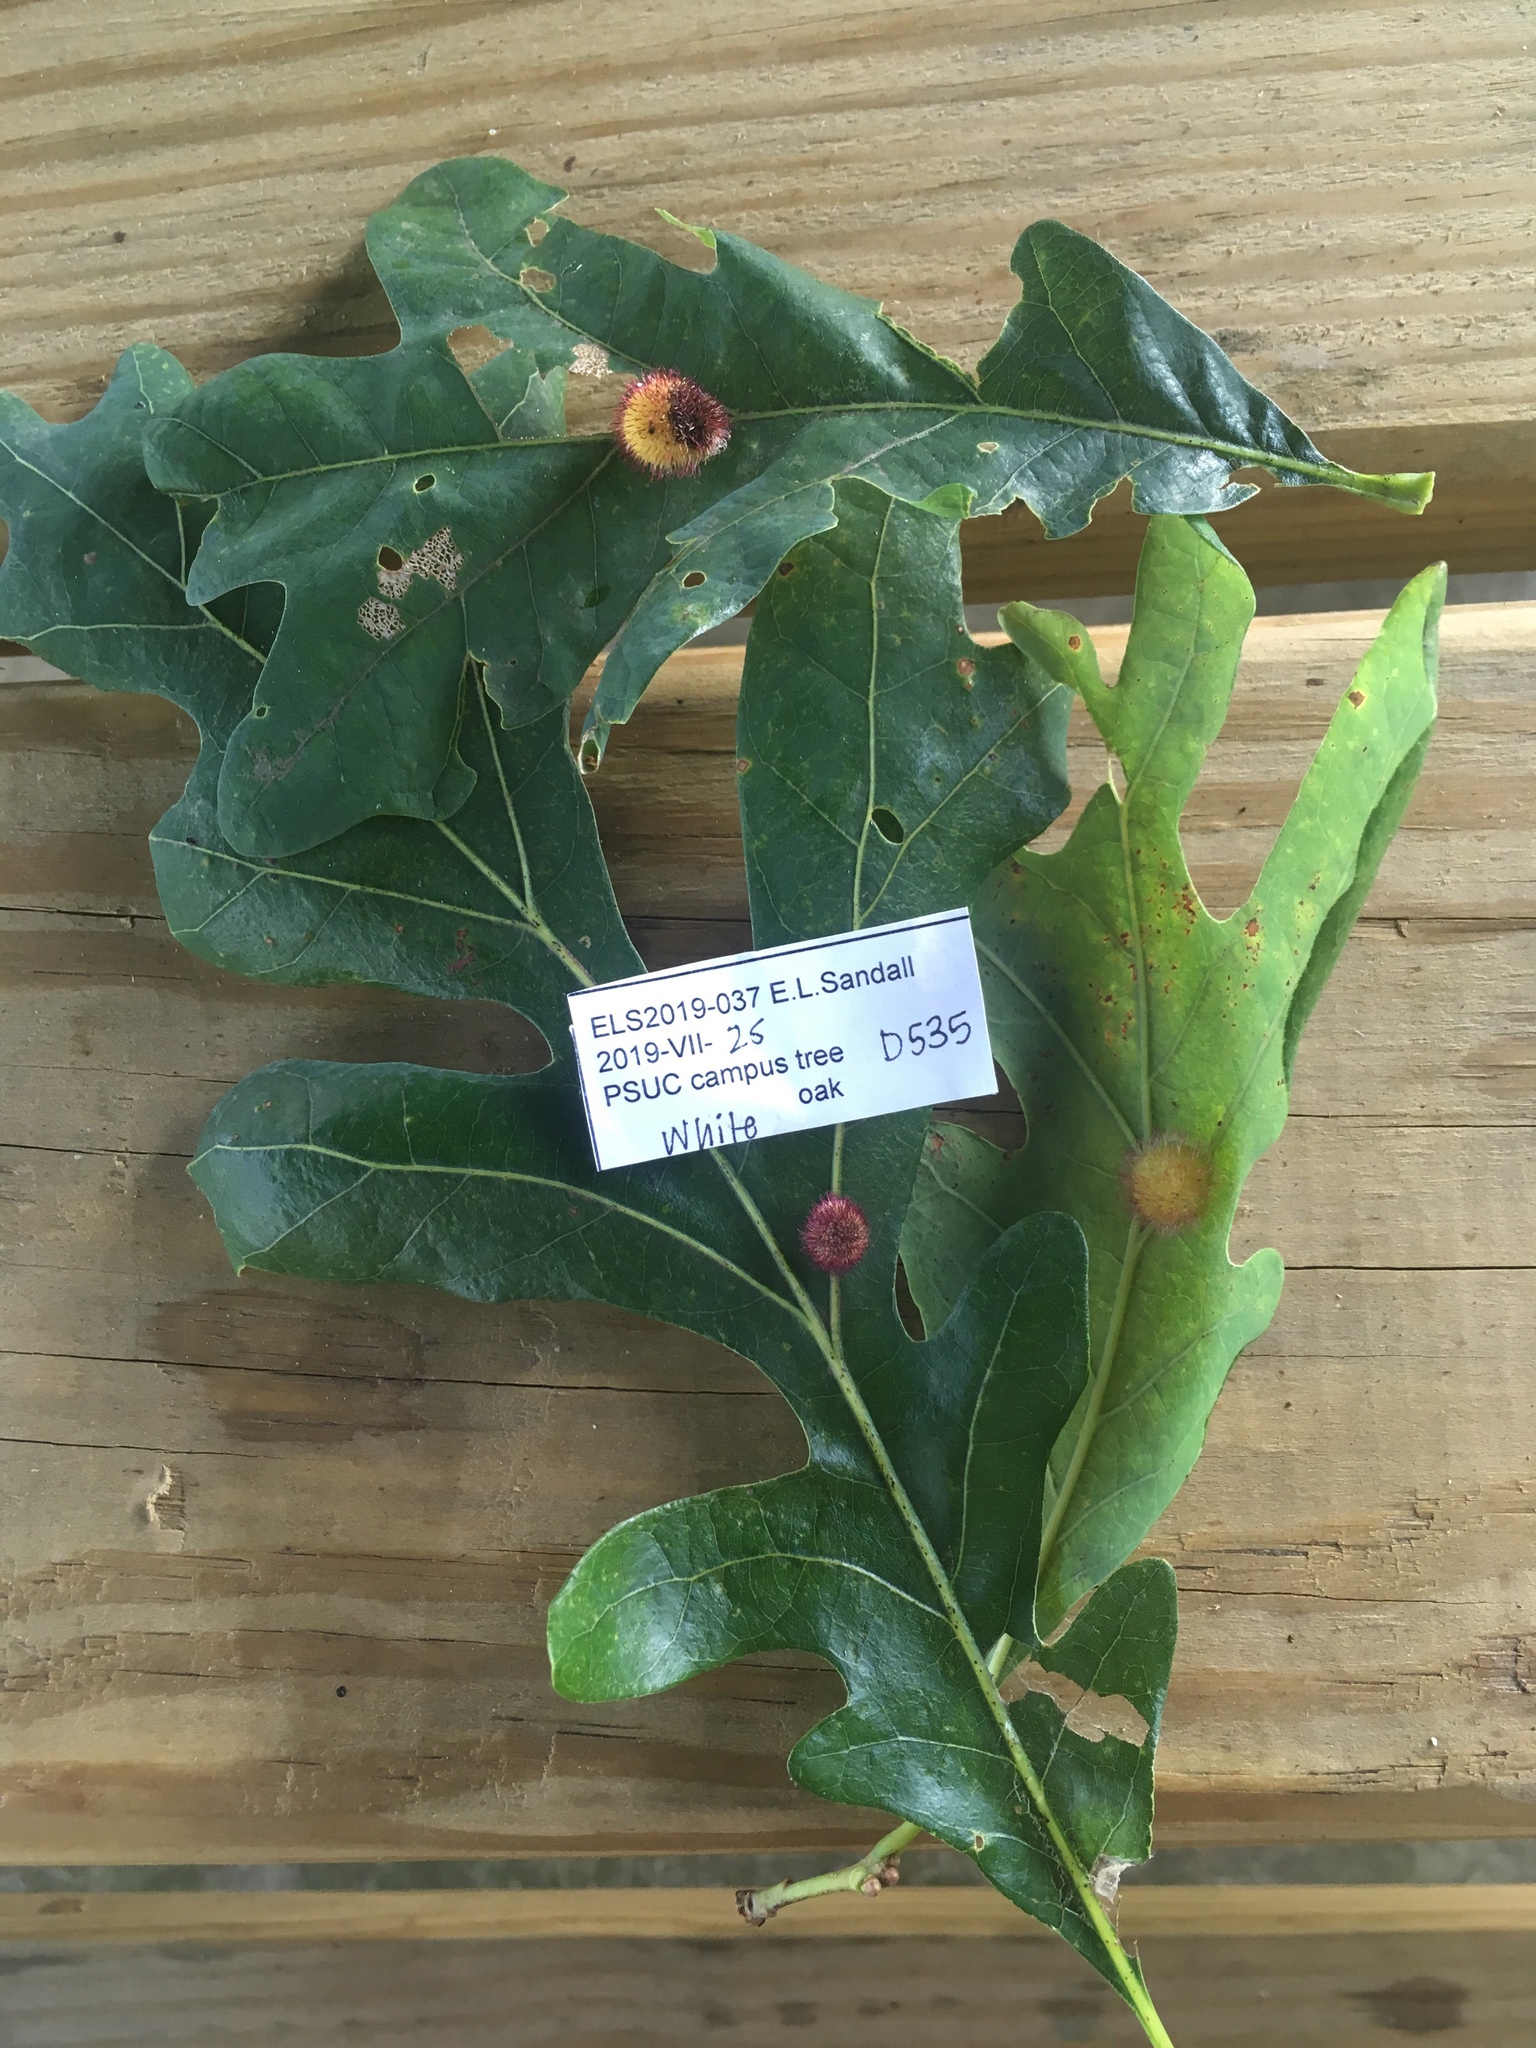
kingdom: Animalia
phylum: Arthropoda
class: Insecta
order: Hymenoptera
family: Cynipidae
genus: Acraspis
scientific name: Acraspis erinacei
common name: Hedgehog gall wasp
